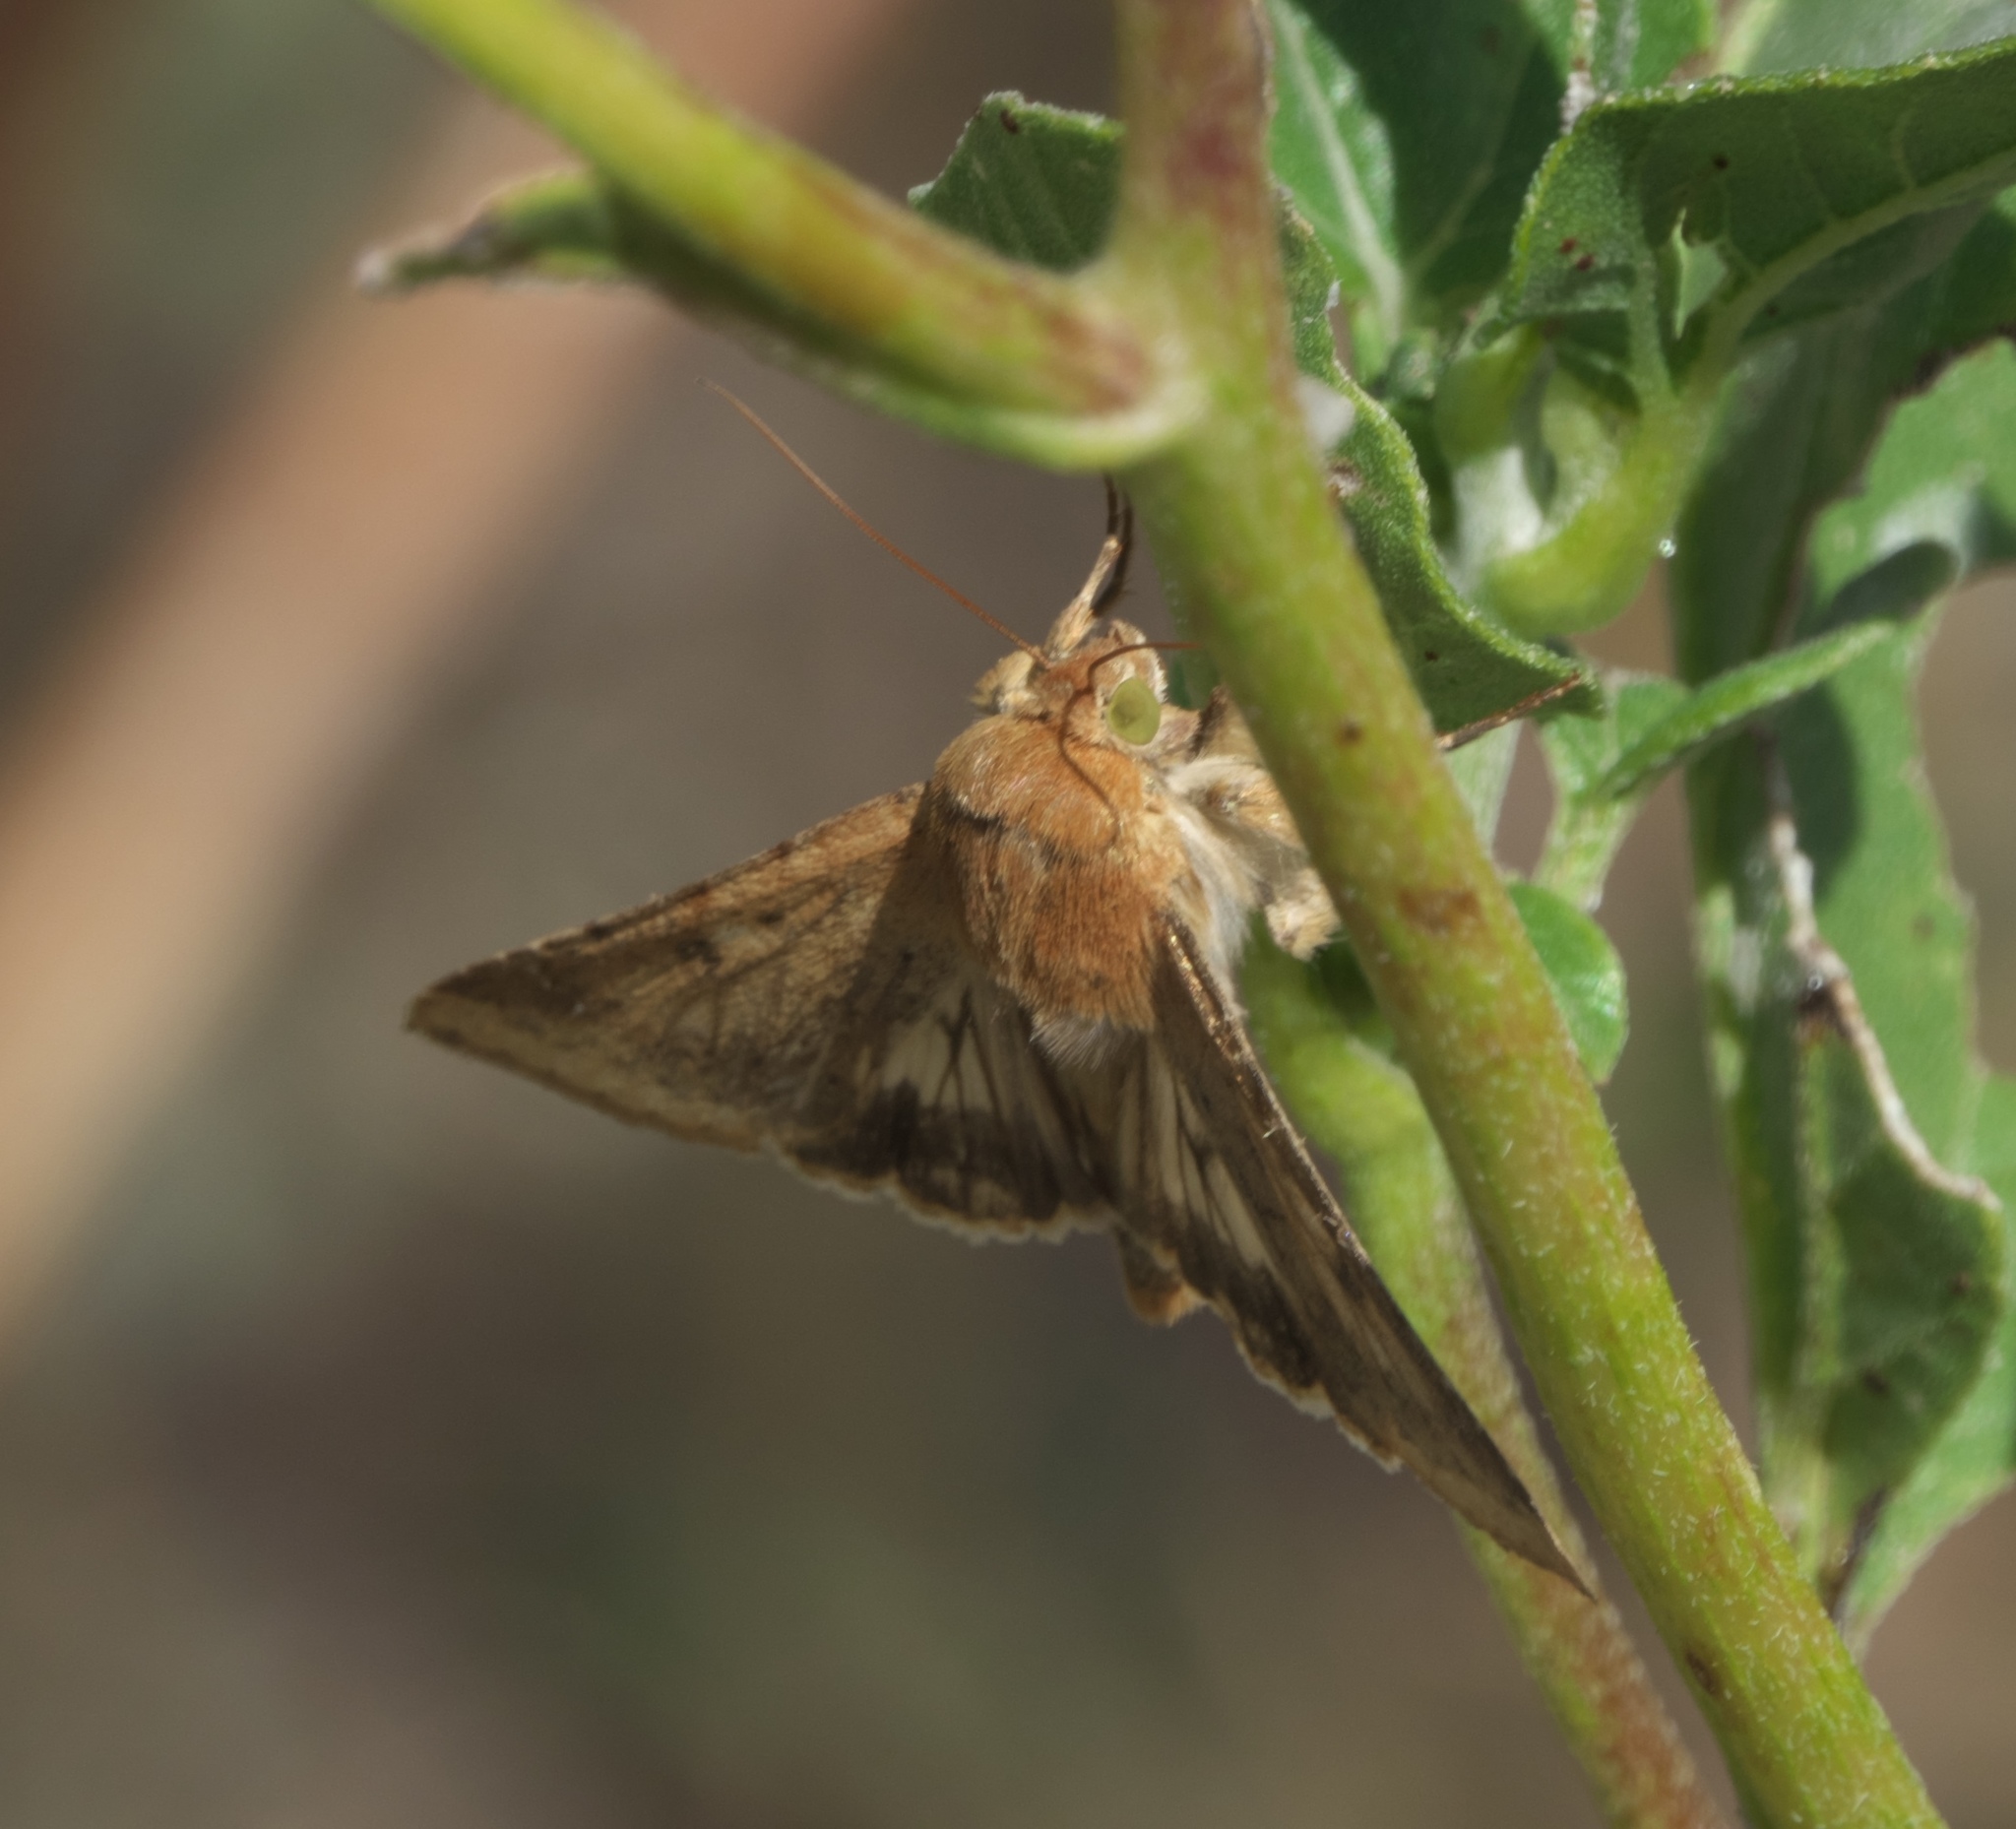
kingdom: Animalia
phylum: Arthropoda
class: Insecta
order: Lepidoptera
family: Noctuidae
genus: Helicoverpa
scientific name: Helicoverpa zea
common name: Bollworm
